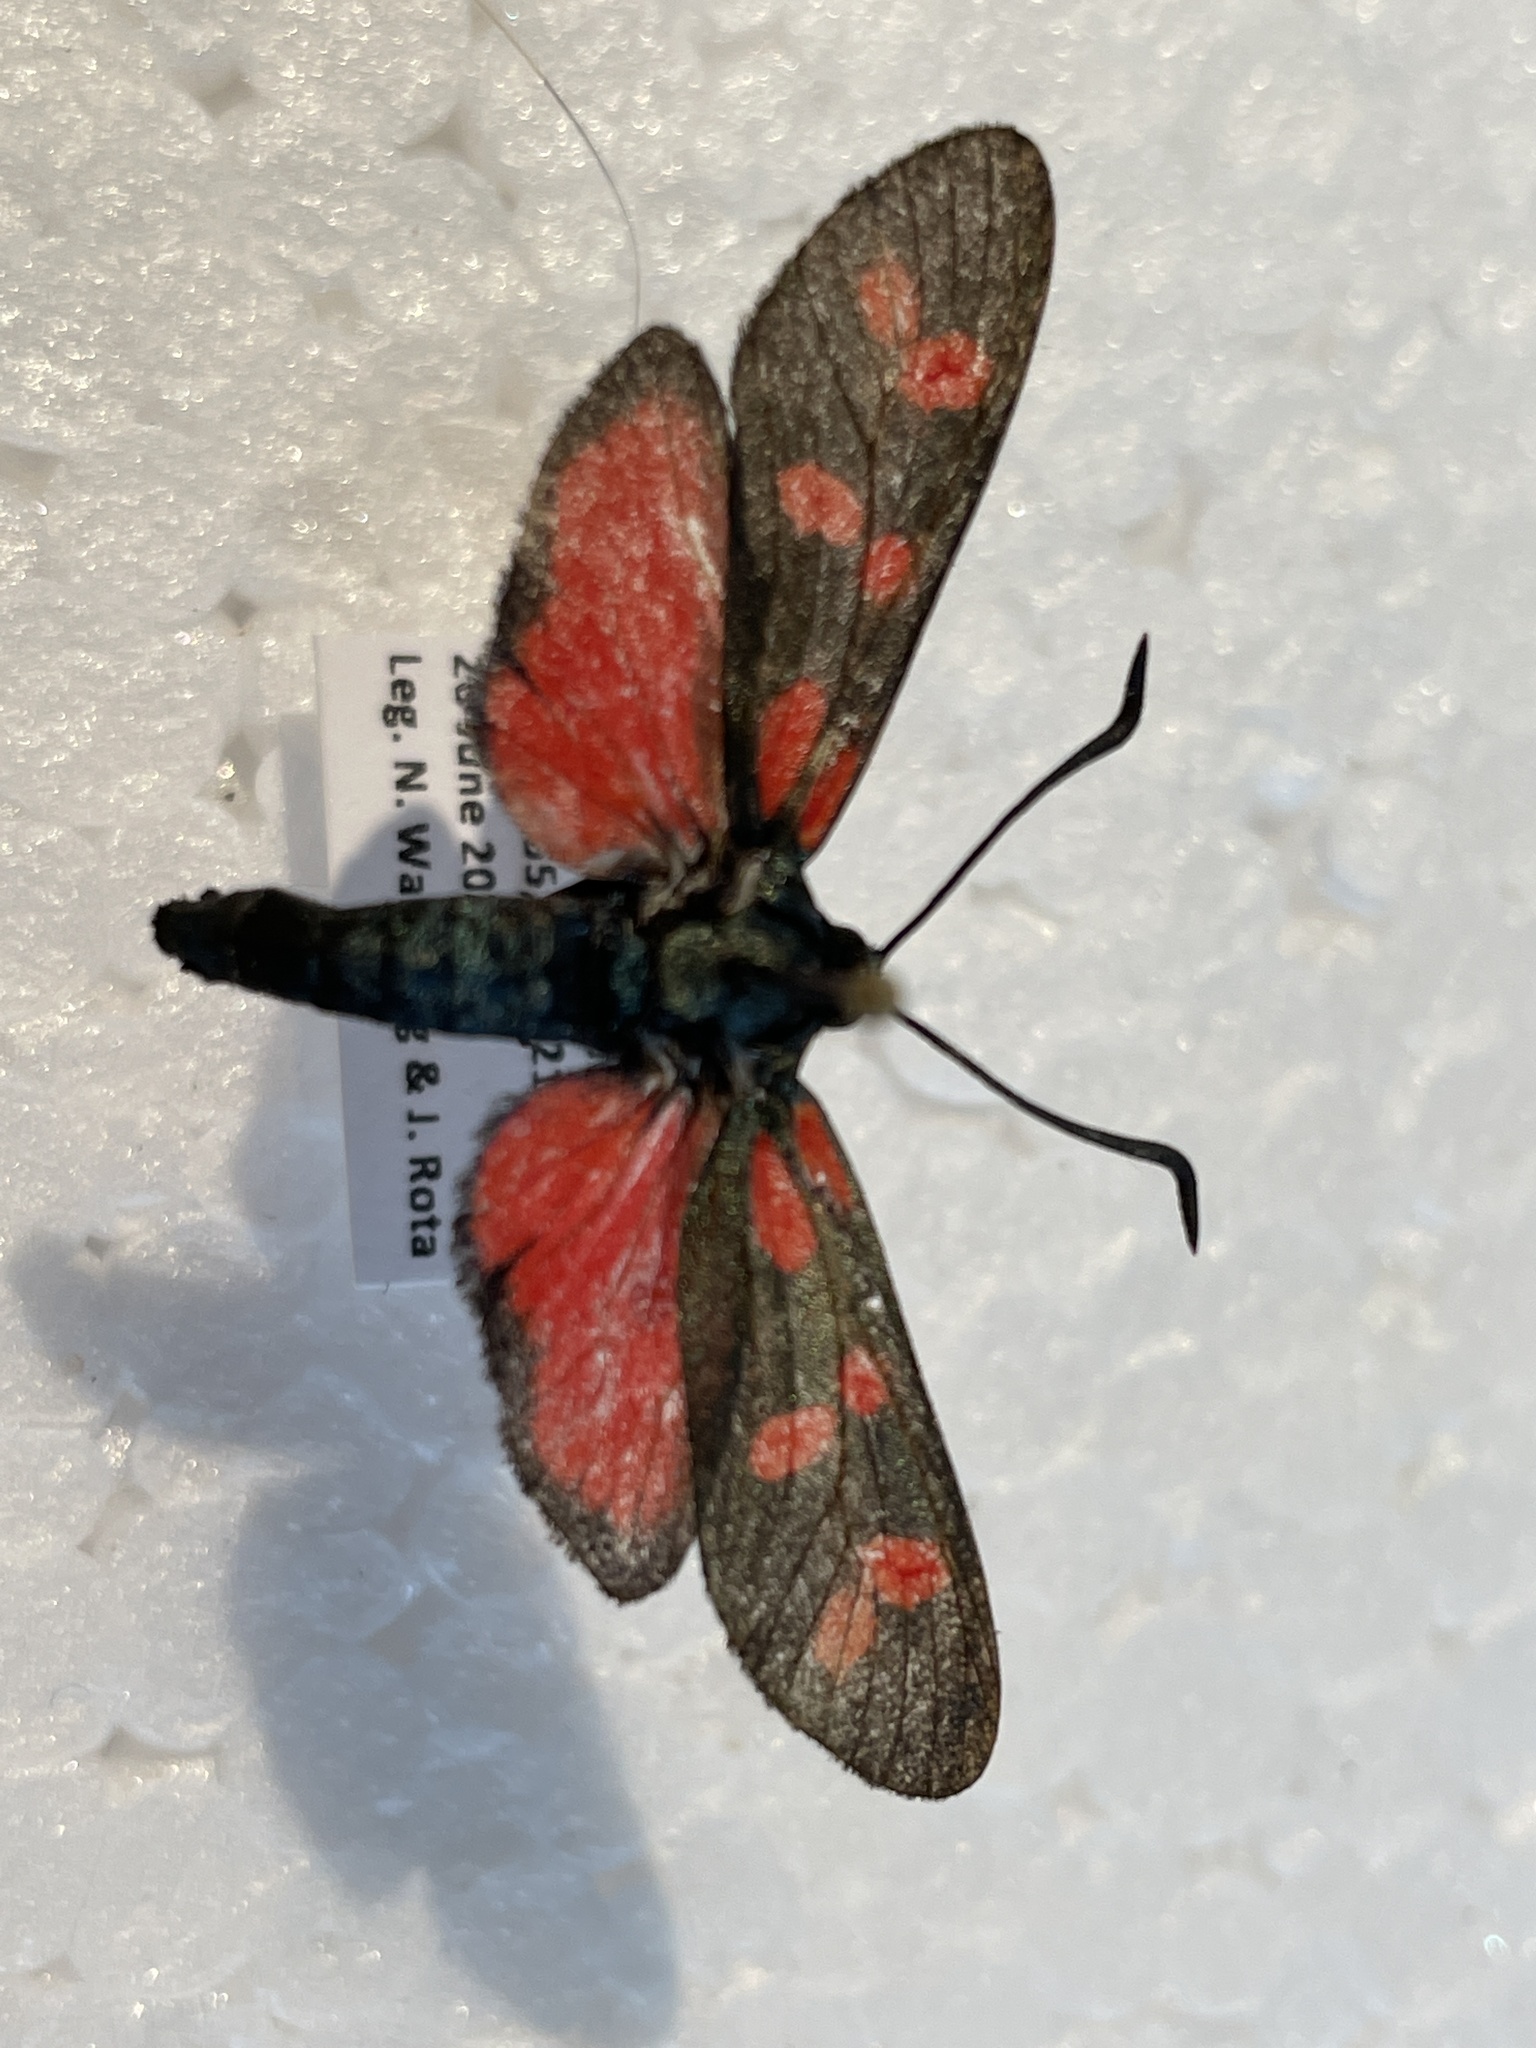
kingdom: Animalia
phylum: Arthropoda
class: Insecta
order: Lepidoptera
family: Zygaenidae
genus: Zygaena
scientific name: Zygaena filipendulae
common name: Six-spot burnet
